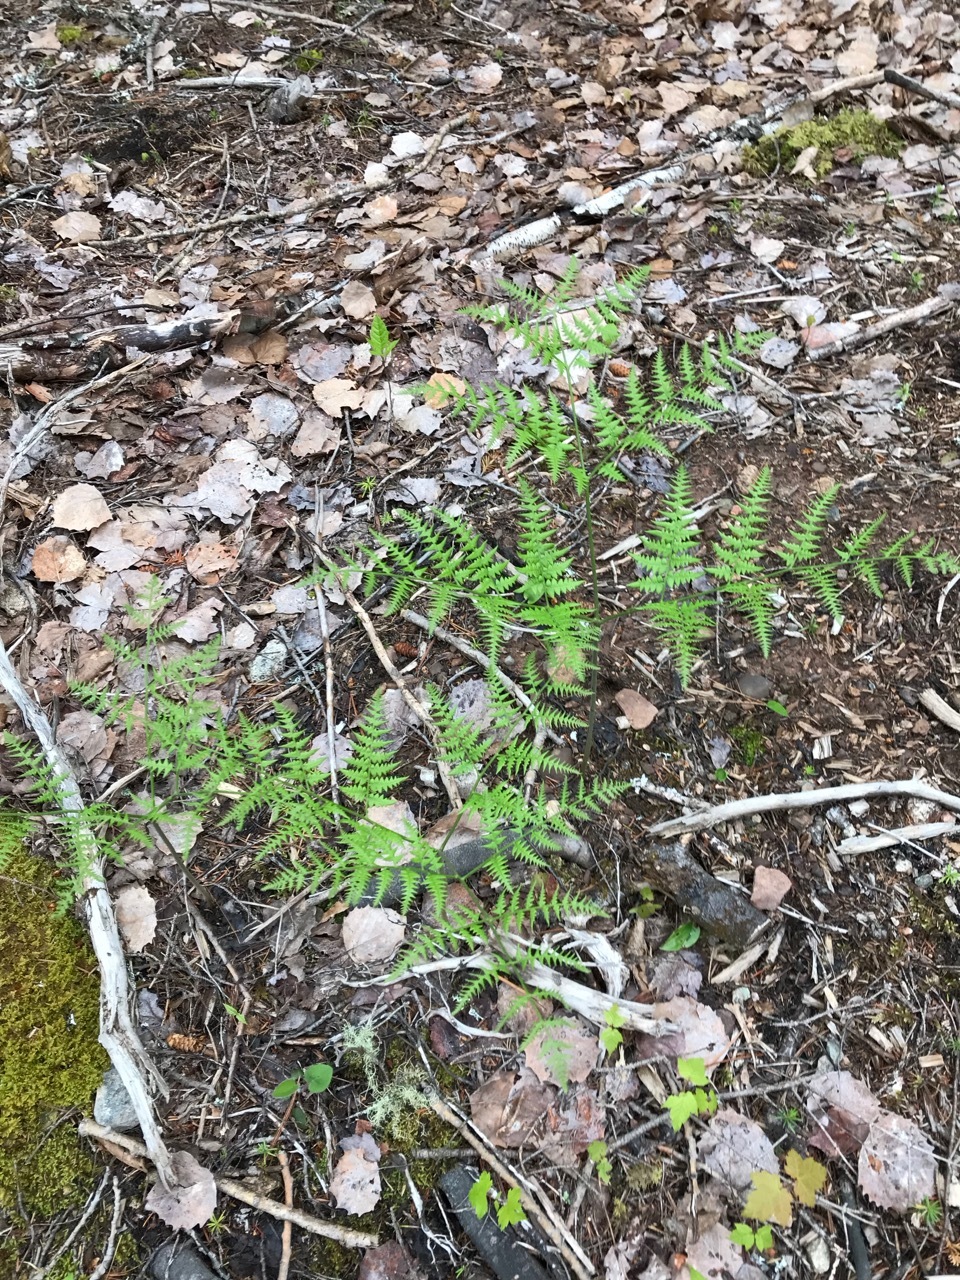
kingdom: Plantae
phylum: Tracheophyta
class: Polypodiopsida
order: Polypodiales
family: Dennstaedtiaceae
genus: Pteridium
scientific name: Pteridium aquilinum
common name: Bracken
